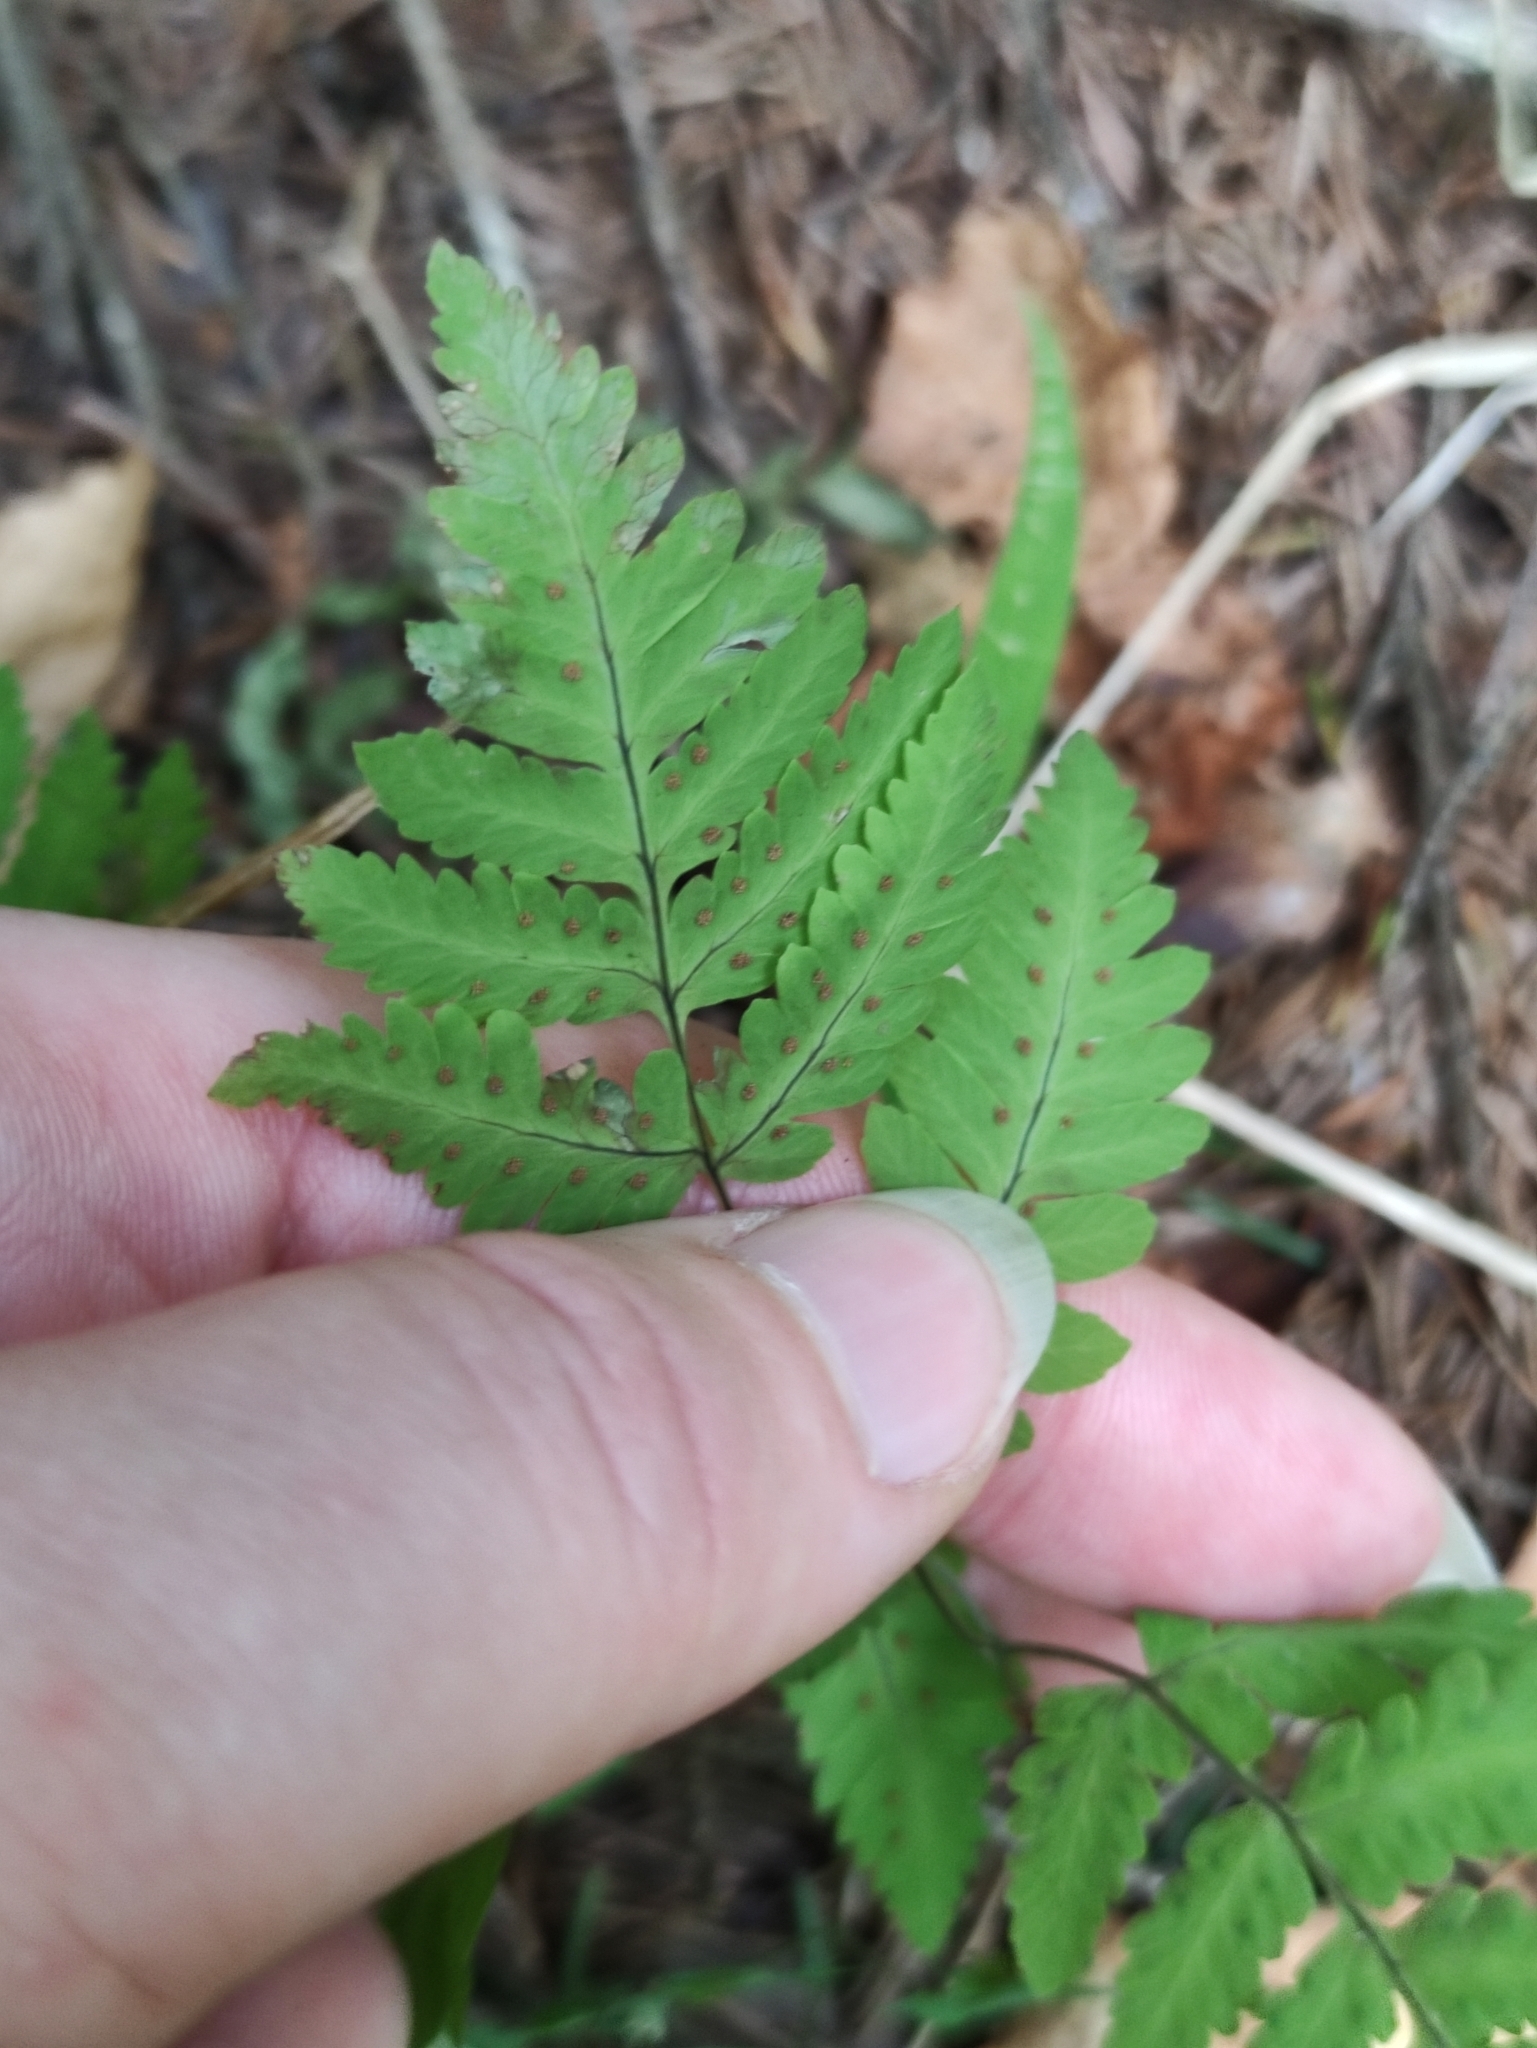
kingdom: Plantae
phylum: Tracheophyta
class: Polypodiopsida
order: Polypodiales
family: Cystopteridaceae
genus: Gymnocarpium
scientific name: Gymnocarpium dryopteris
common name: Oak fern
